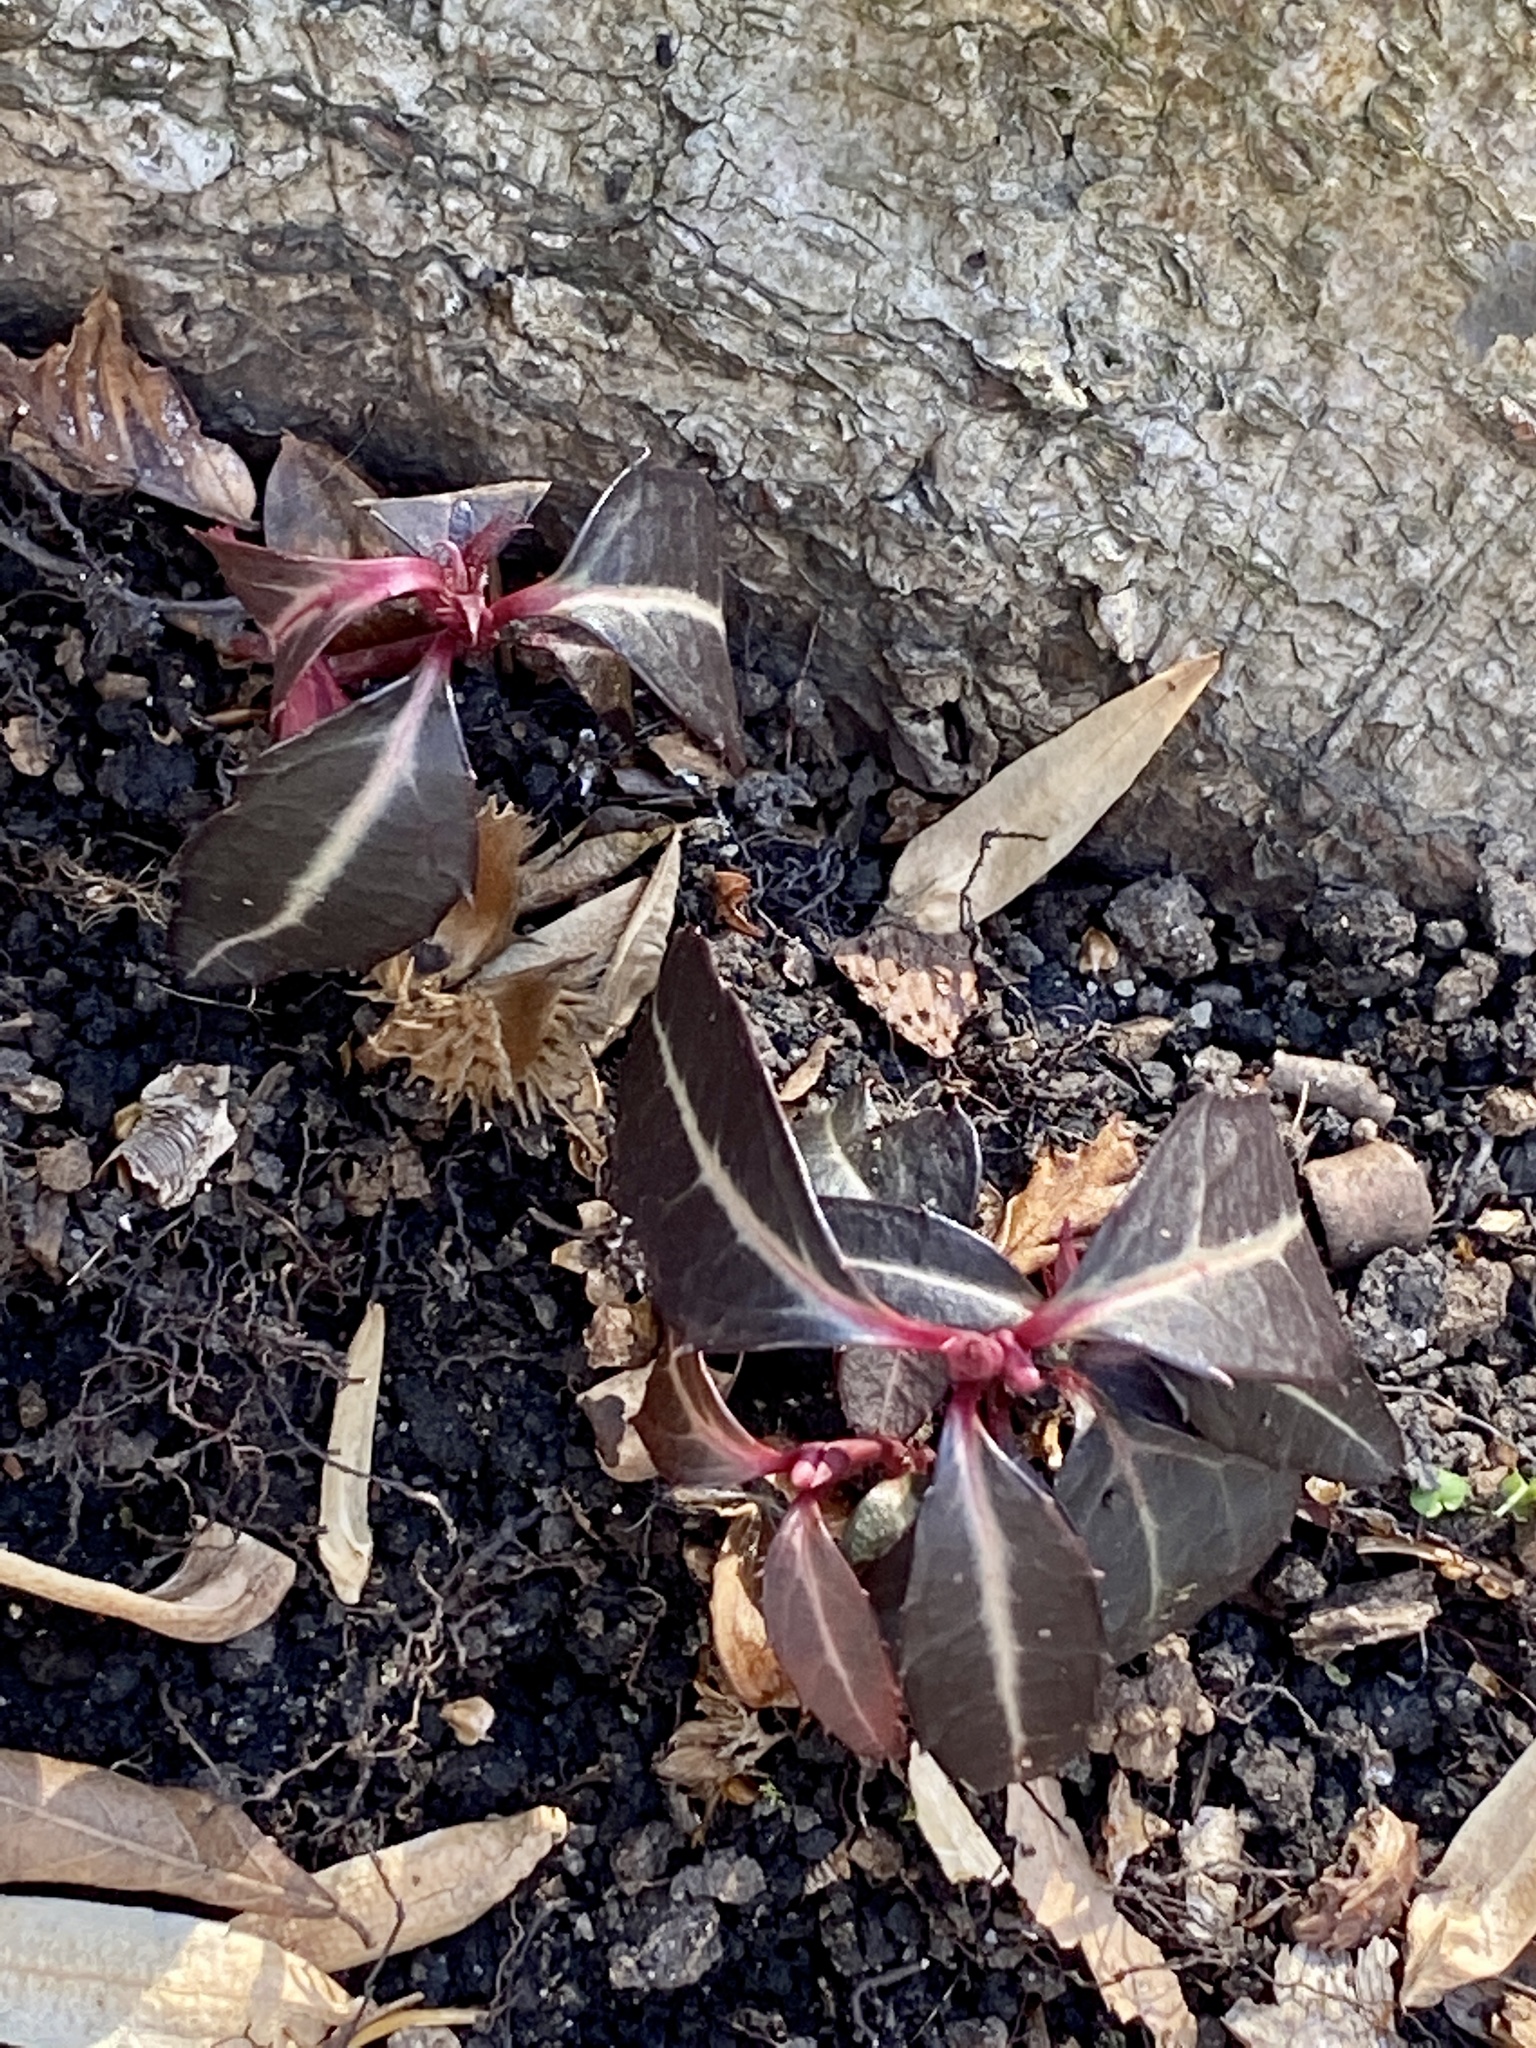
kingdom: Plantae
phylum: Tracheophyta
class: Magnoliopsida
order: Ericales
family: Ericaceae
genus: Chimaphila
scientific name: Chimaphila maculata
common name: Spotted pipsissewa
